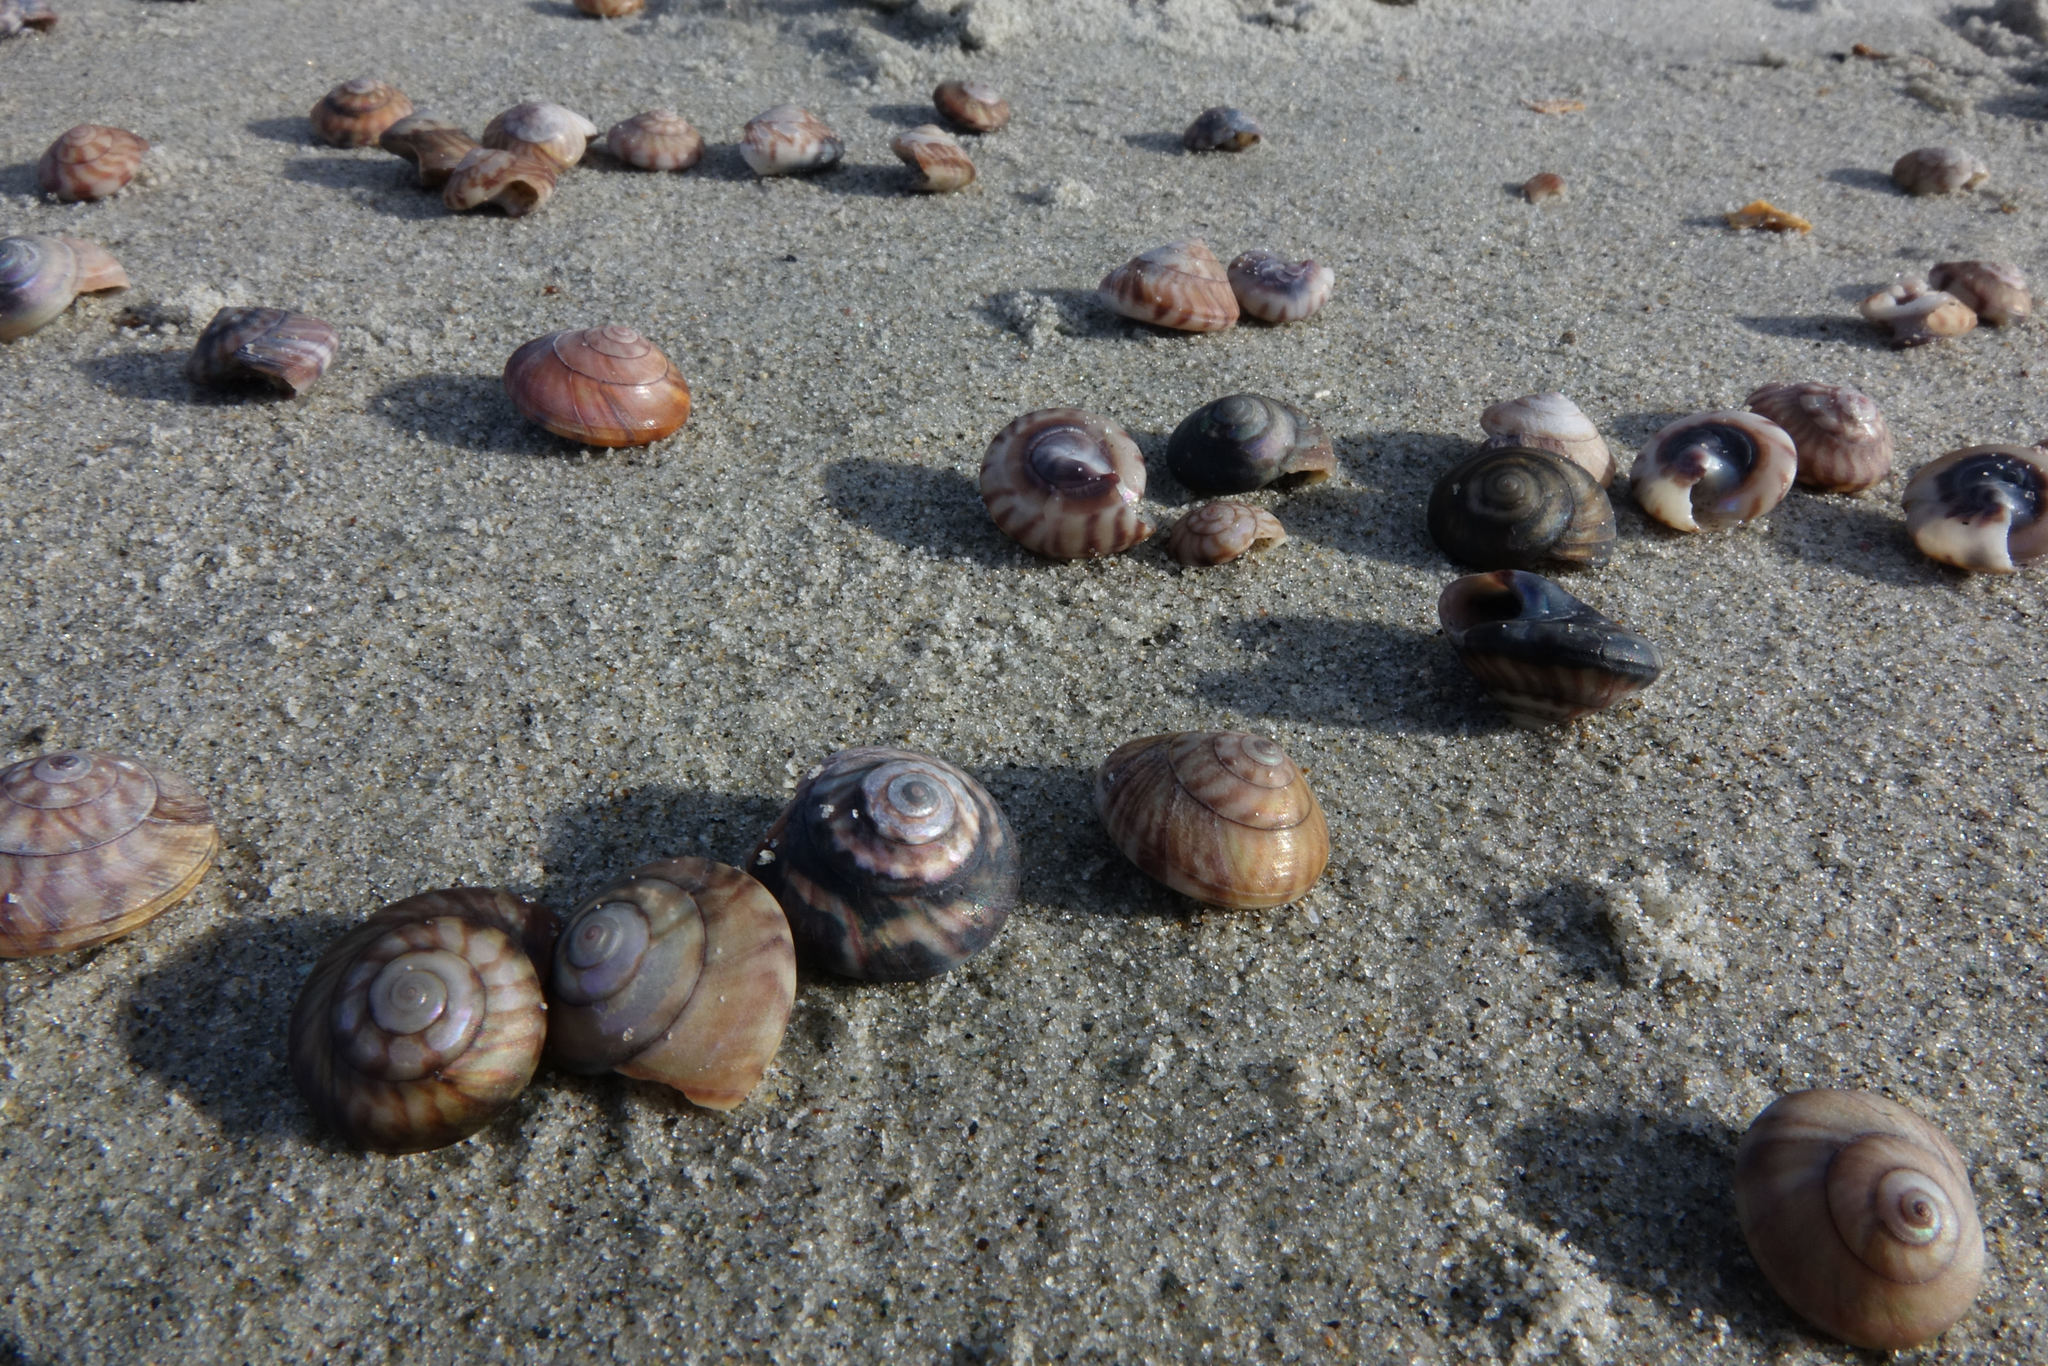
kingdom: Animalia
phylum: Mollusca
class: Gastropoda
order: Trochida
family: Trochidae
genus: Zethalia
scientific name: Zethalia zelandica
